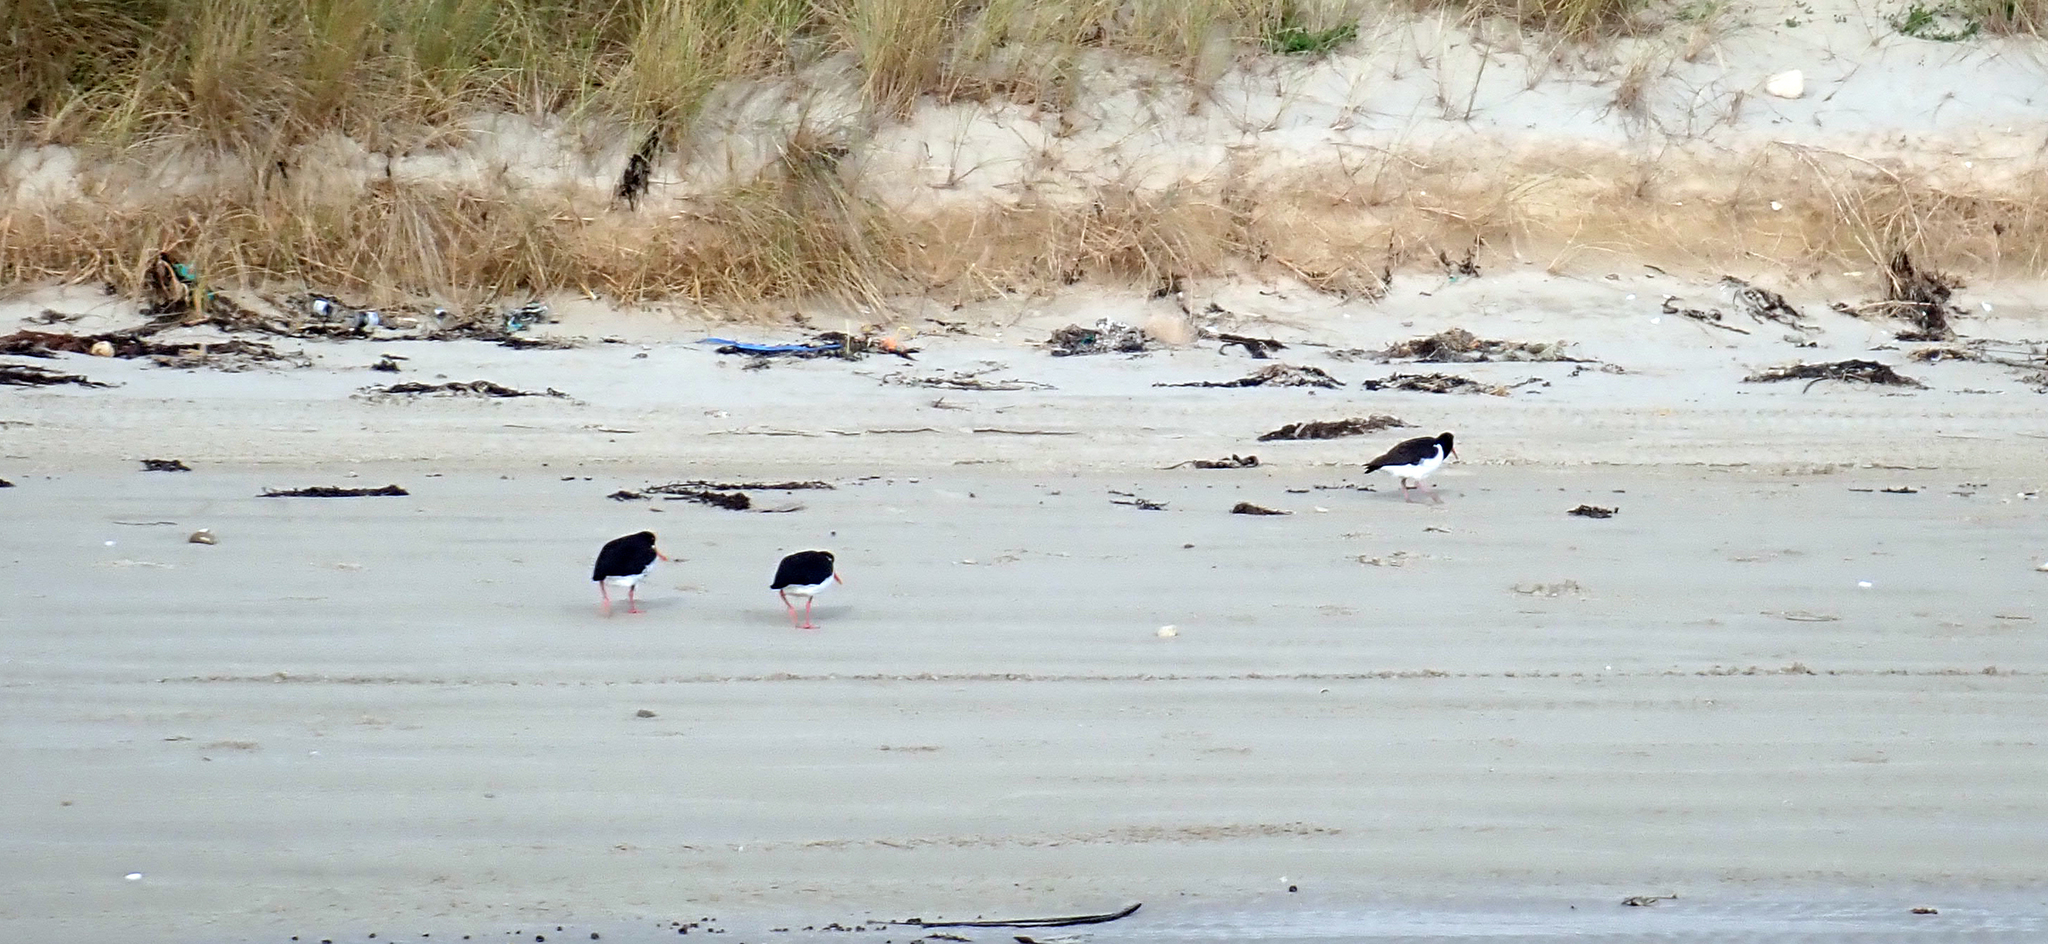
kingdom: Animalia
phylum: Chordata
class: Aves
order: Charadriiformes
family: Haematopodidae
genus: Haematopus
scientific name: Haematopus chathamensis
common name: Chatham oystercatcher
